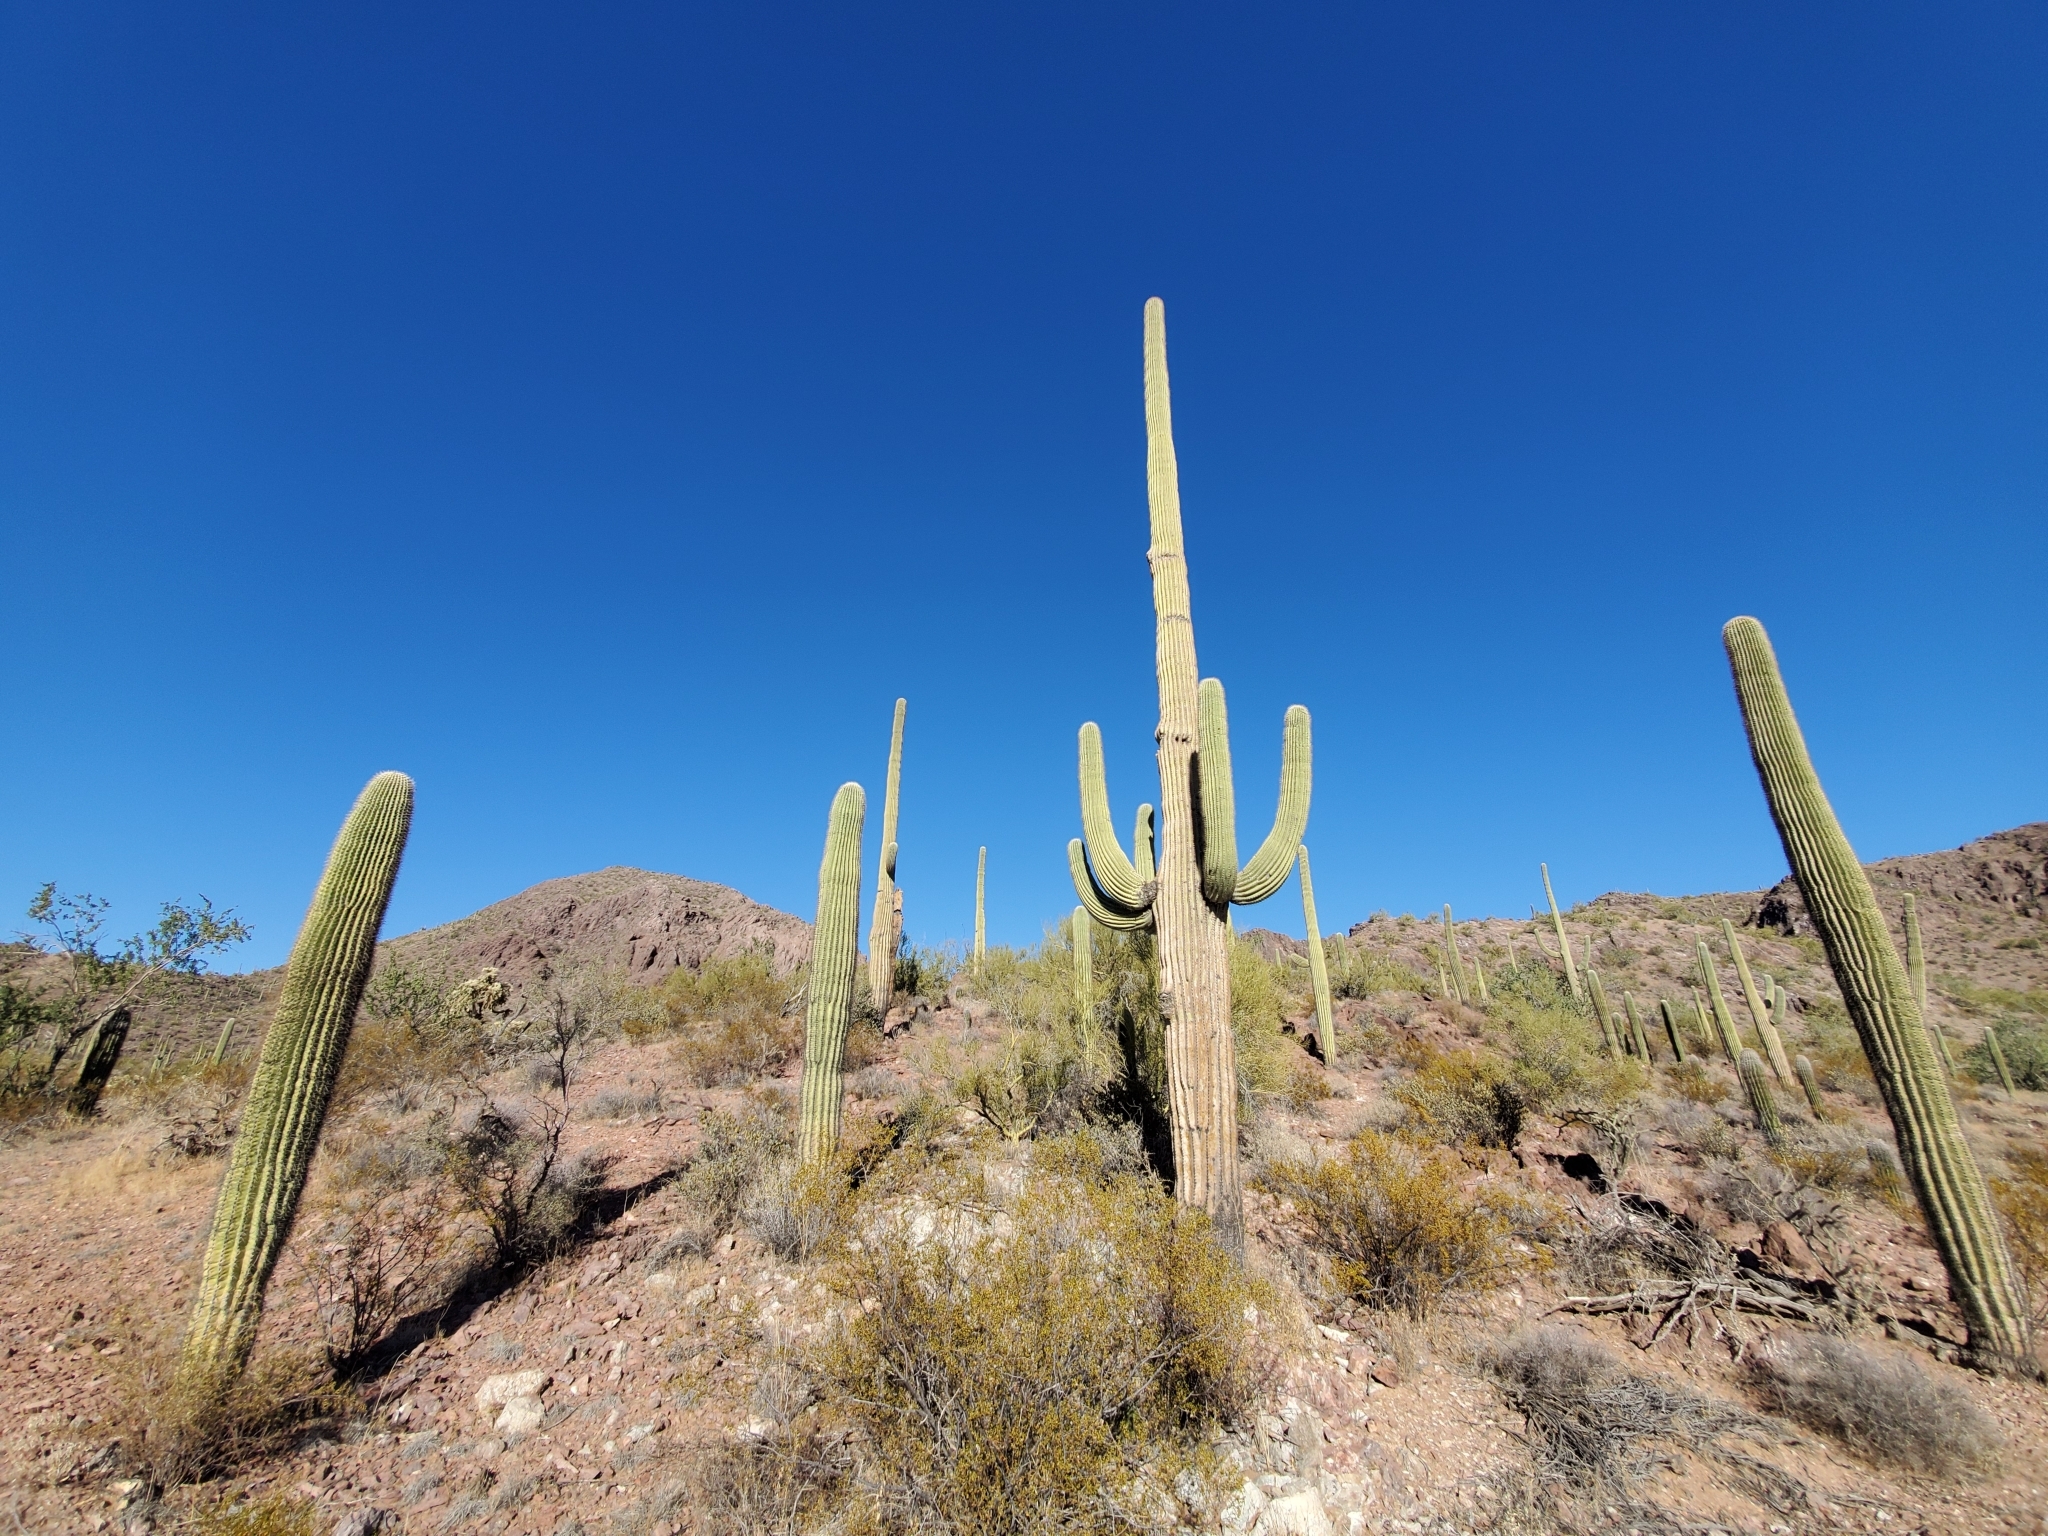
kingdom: Plantae
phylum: Tracheophyta
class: Magnoliopsida
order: Caryophyllales
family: Cactaceae
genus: Carnegiea
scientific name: Carnegiea gigantea
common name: Saguaro
